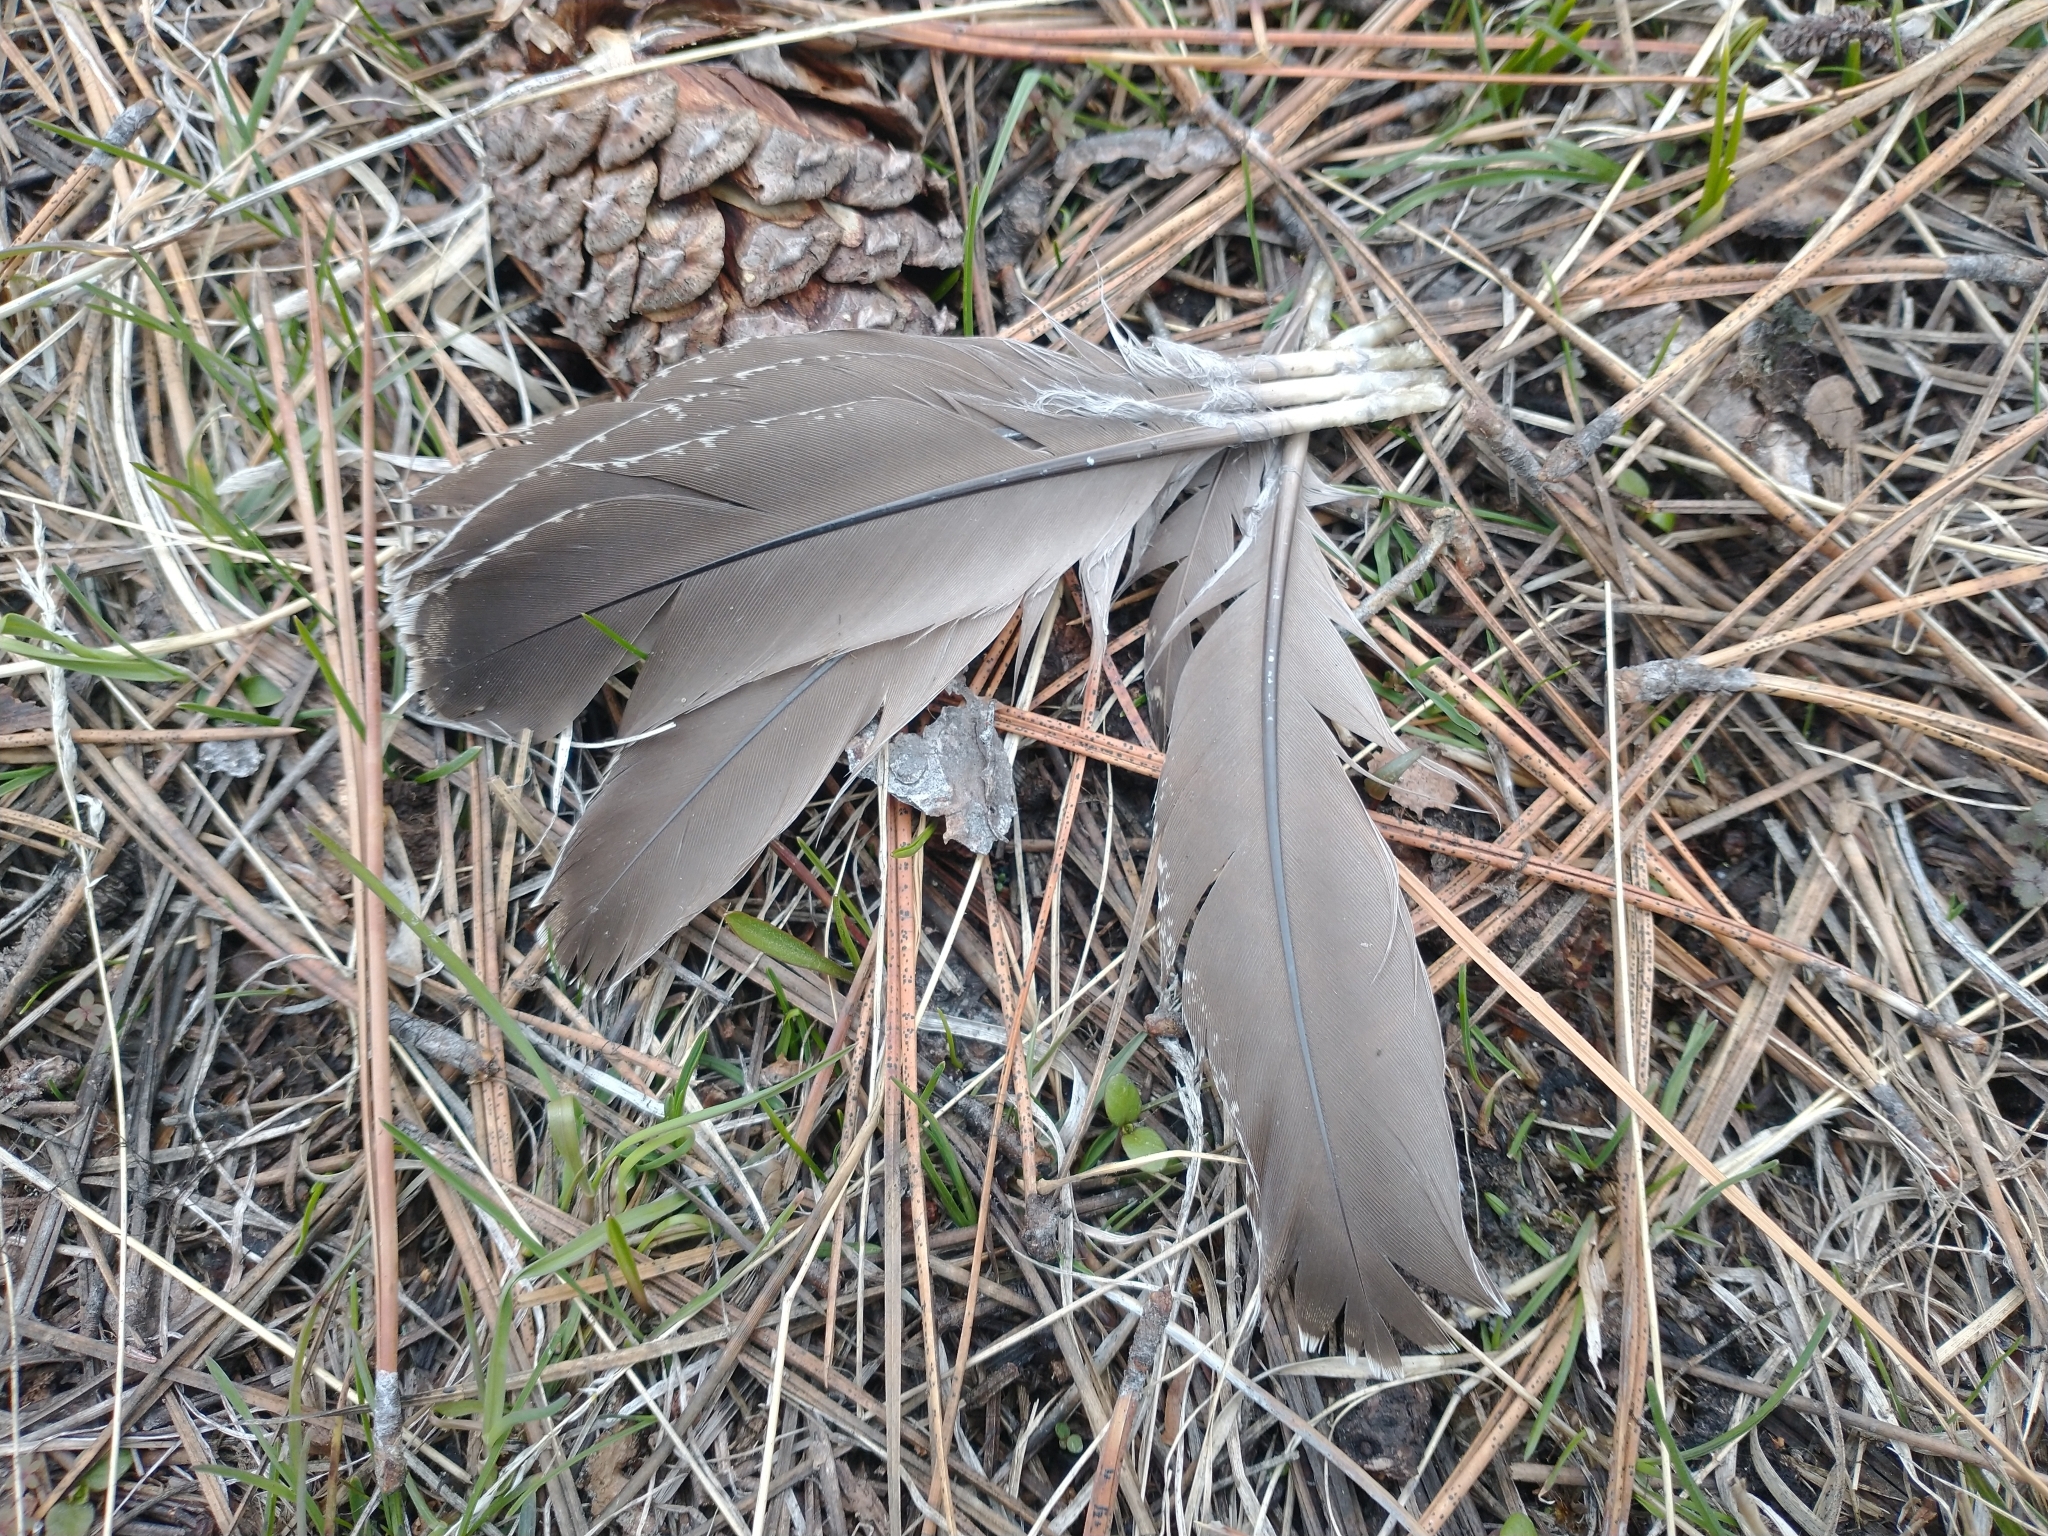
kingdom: Animalia
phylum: Chordata
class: Aves
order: Galliformes
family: Phasianidae
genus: Dendragapus
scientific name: Dendragapus obscurus
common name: Dusky grouse
